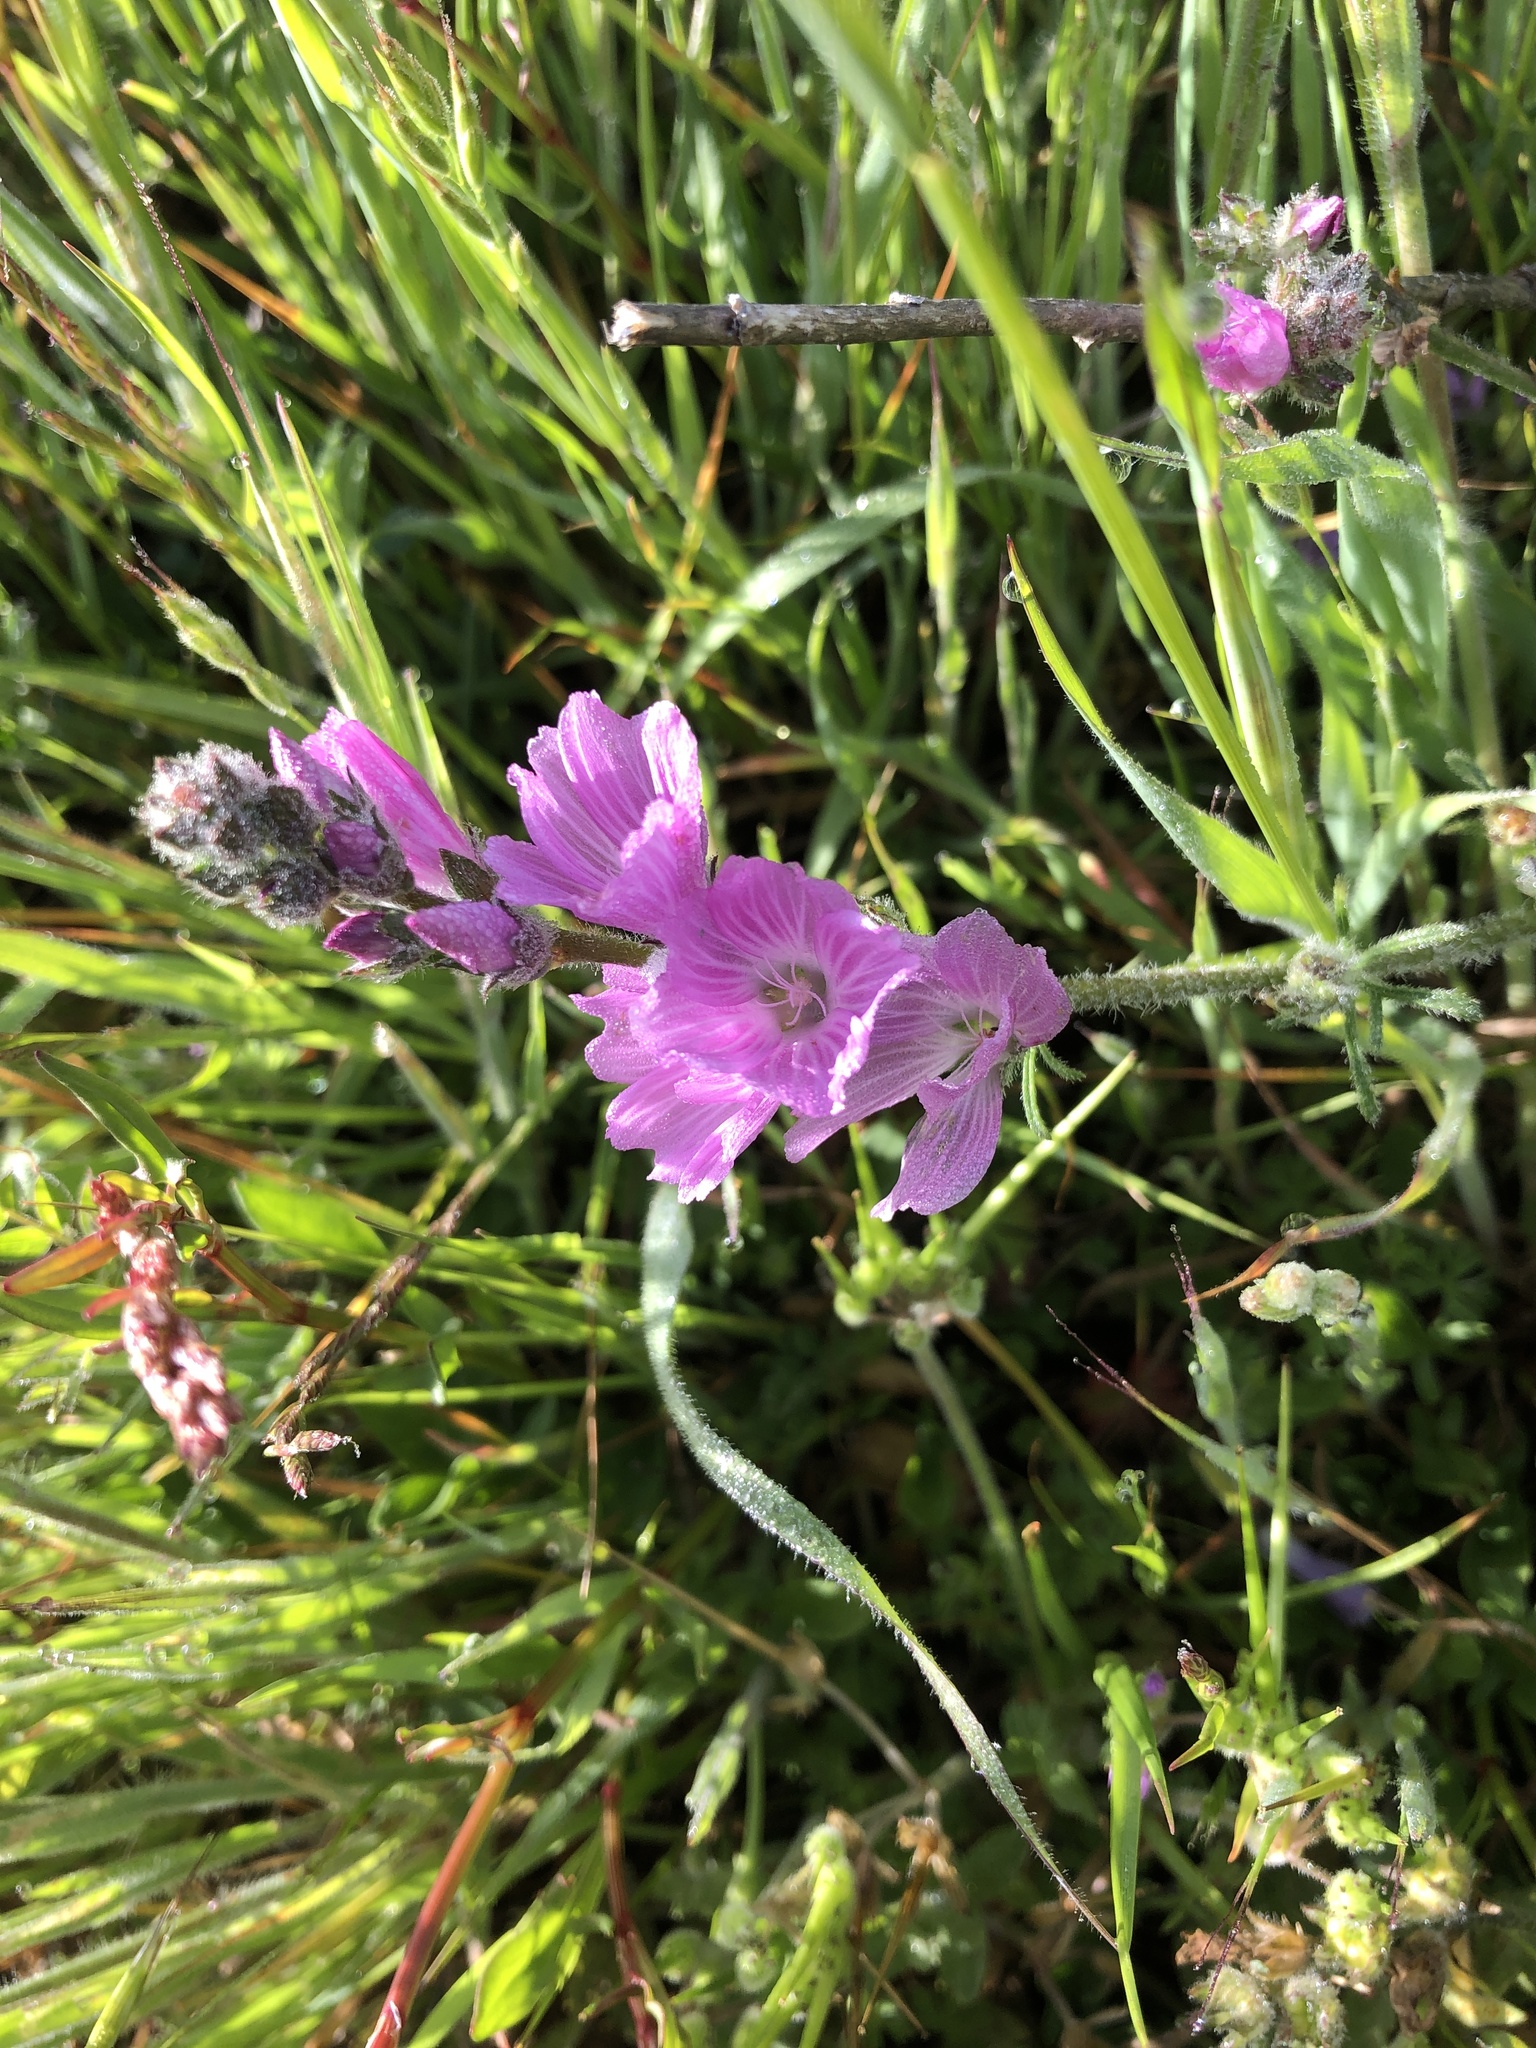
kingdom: Plantae
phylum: Tracheophyta
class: Magnoliopsida
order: Malvales
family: Malvaceae
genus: Sidalcea
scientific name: Sidalcea malviflora
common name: Greek mallow
